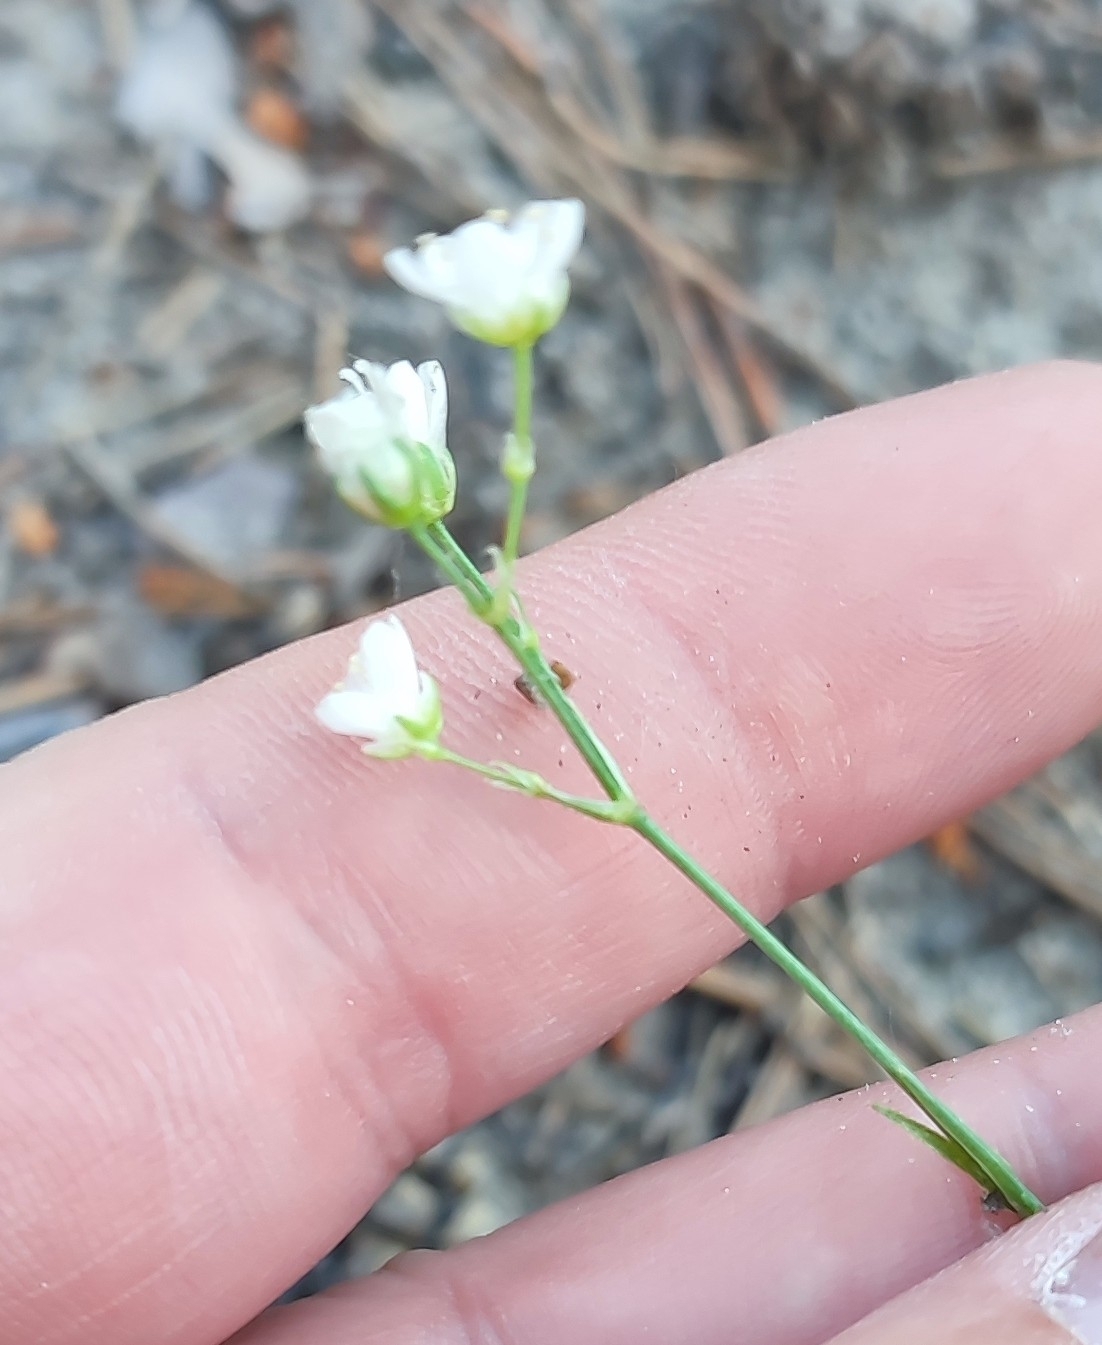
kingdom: Plantae
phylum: Tracheophyta
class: Magnoliopsida
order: Caryophyllales
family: Caryophyllaceae
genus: Eremogone
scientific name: Eremogone saxatilis
